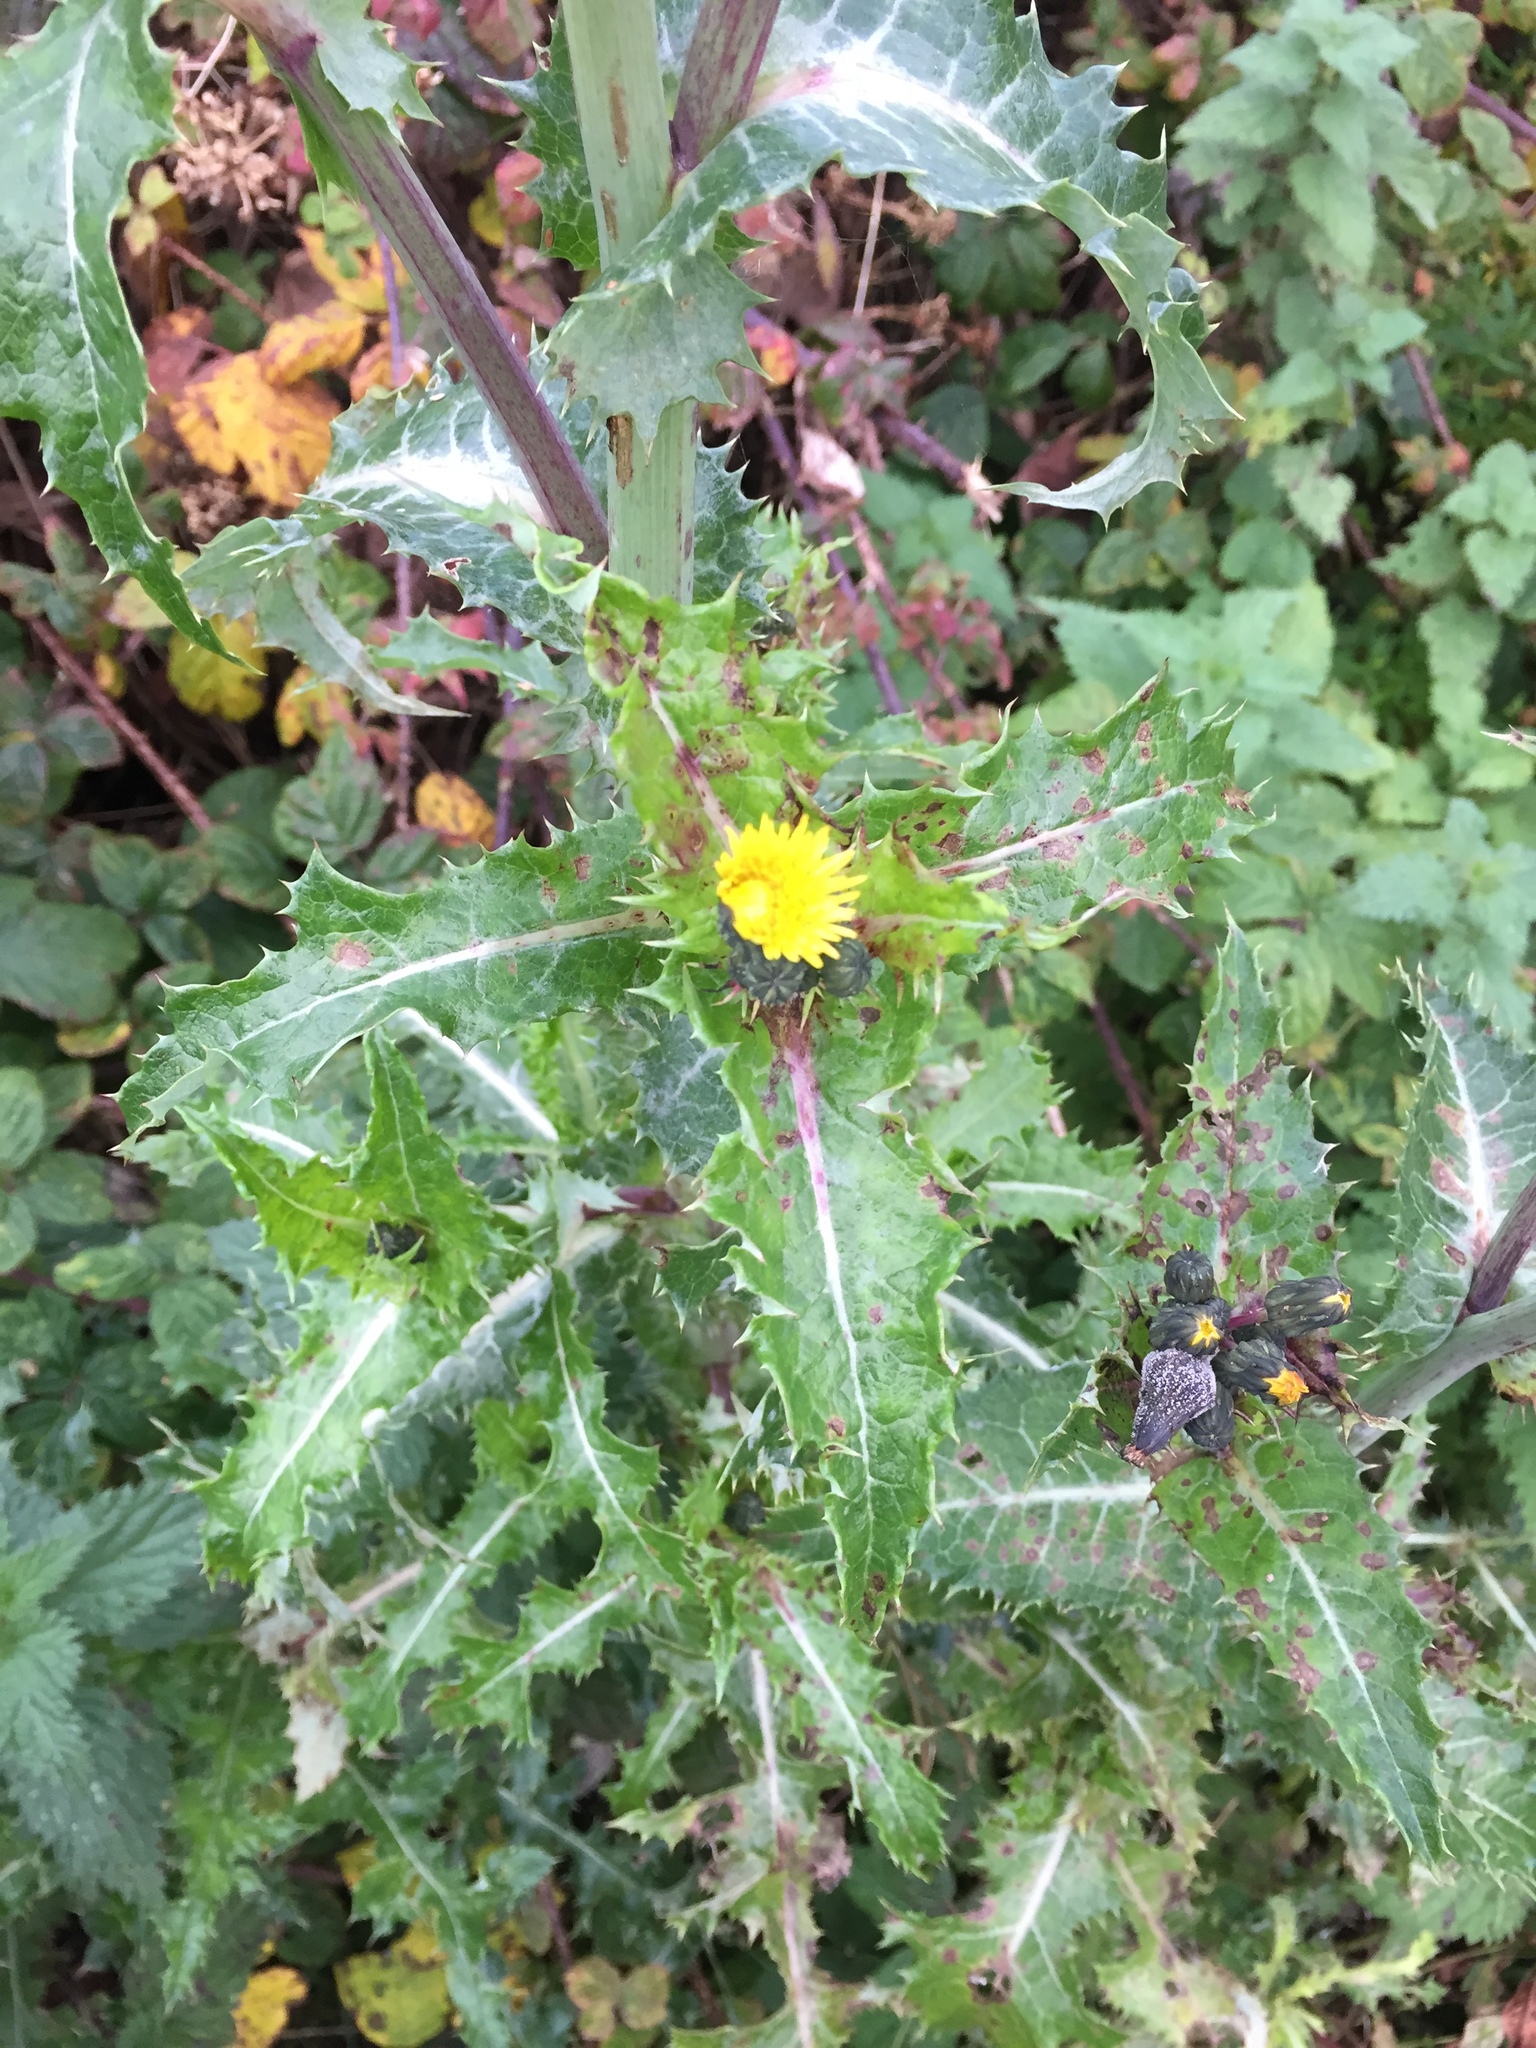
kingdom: Plantae
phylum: Tracheophyta
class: Magnoliopsida
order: Asterales
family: Asteraceae
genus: Sonchus
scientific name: Sonchus asper
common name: Prickly sow-thistle
